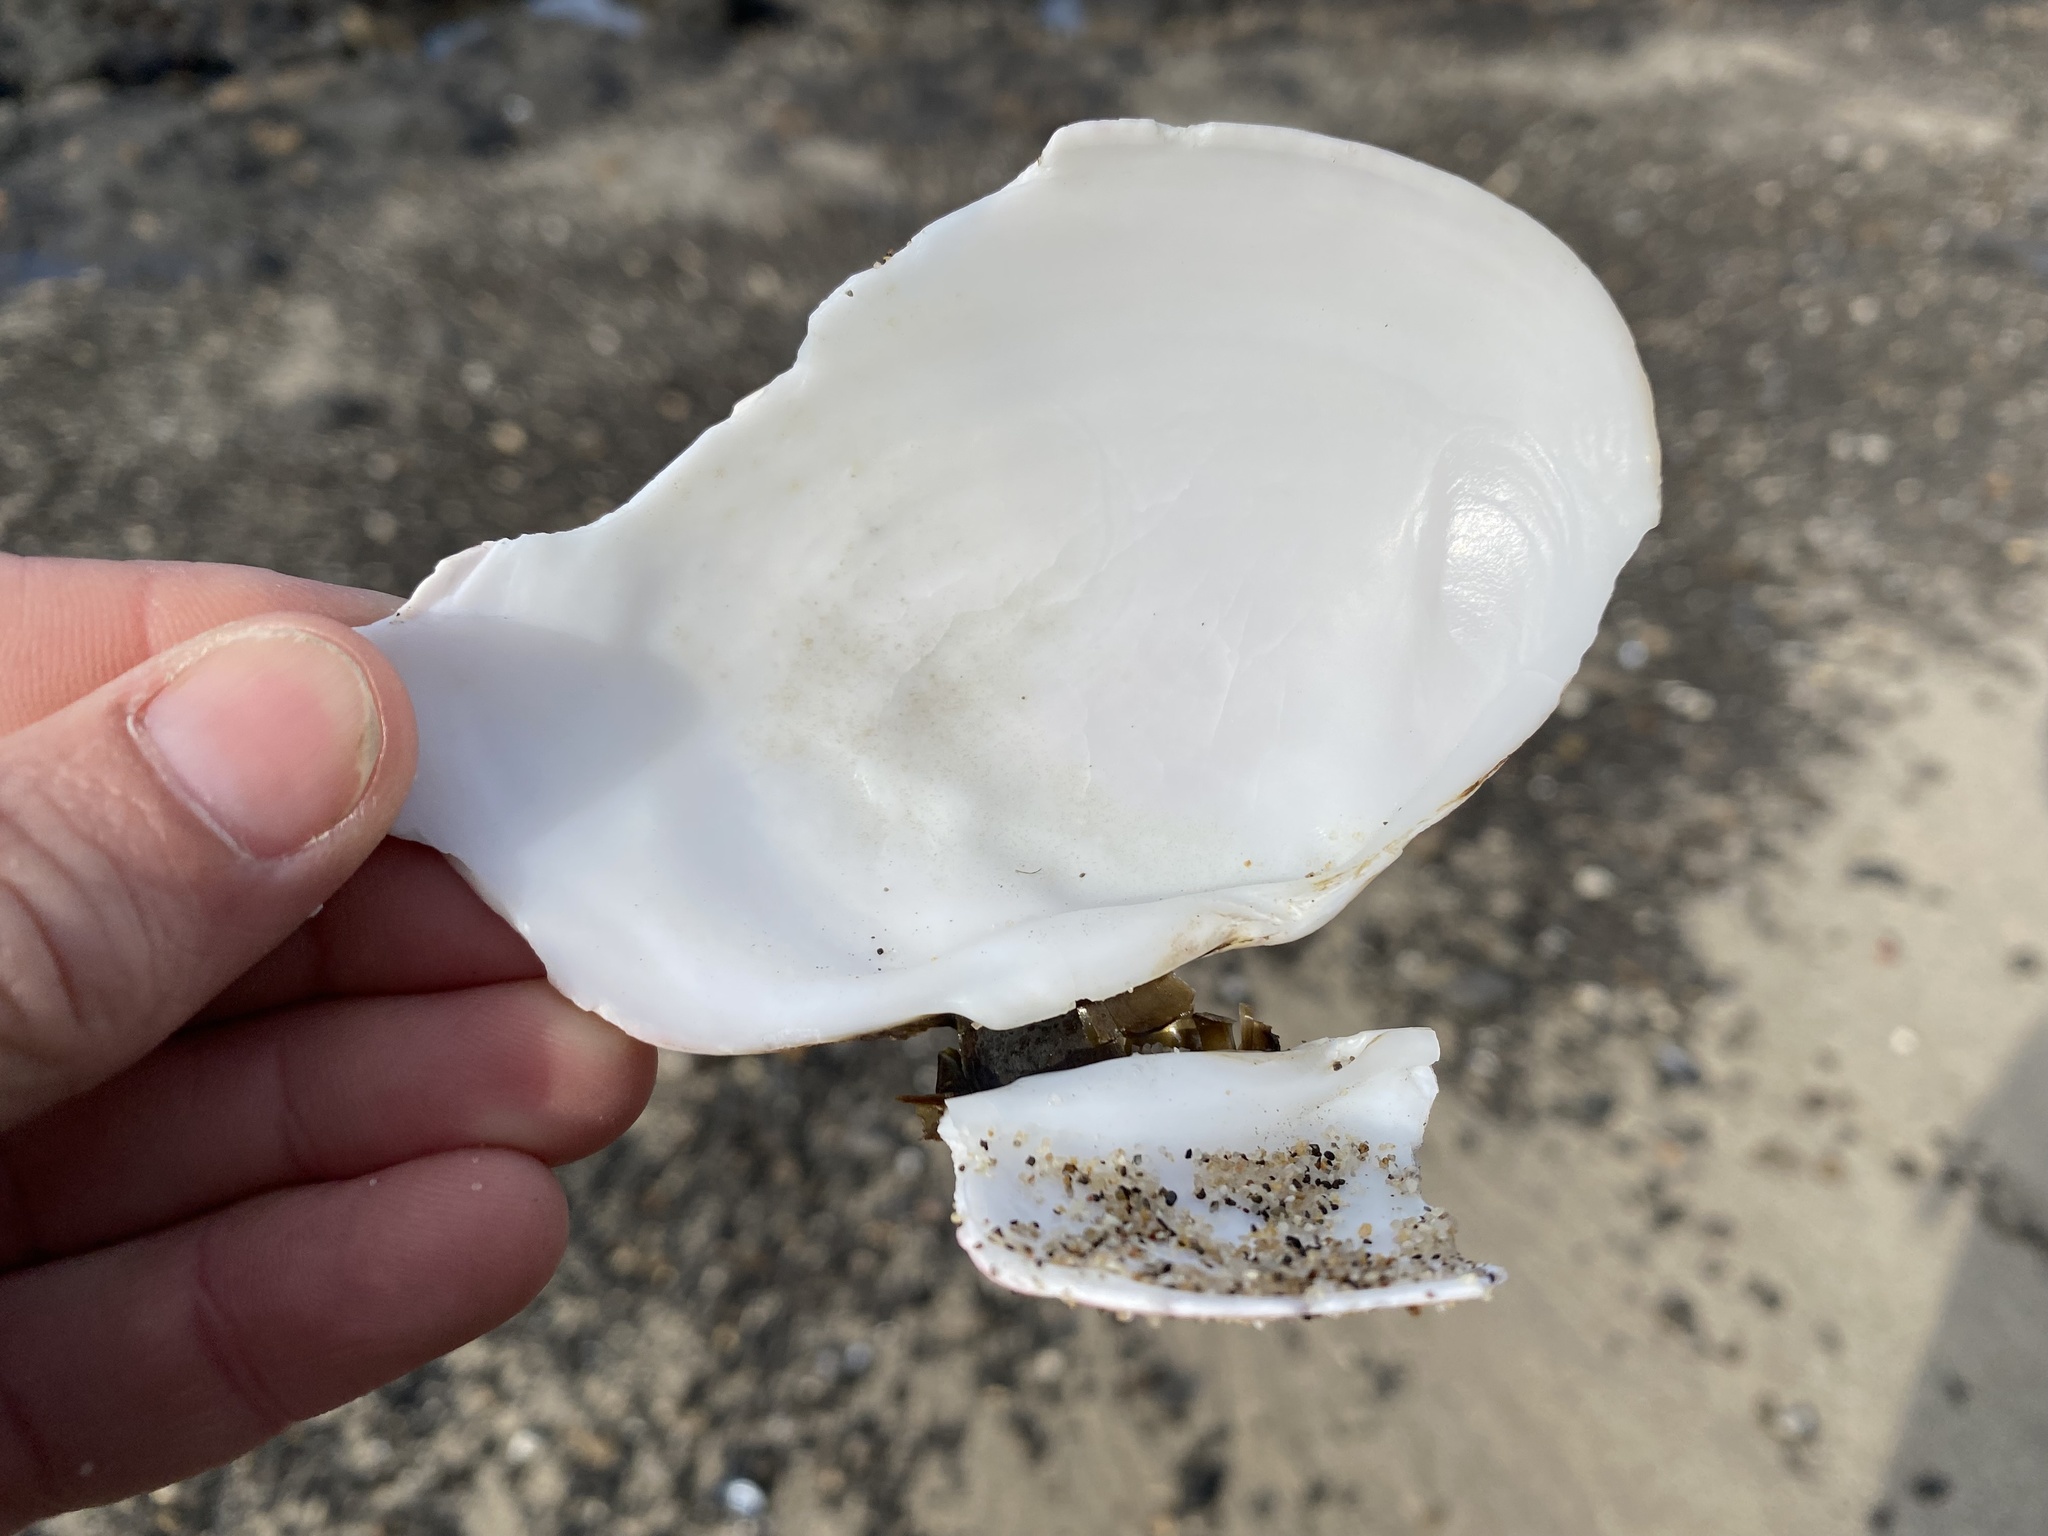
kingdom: Animalia
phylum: Mollusca
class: Bivalvia
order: Cardiida
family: Psammobiidae
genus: Gari
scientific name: Gari californica
